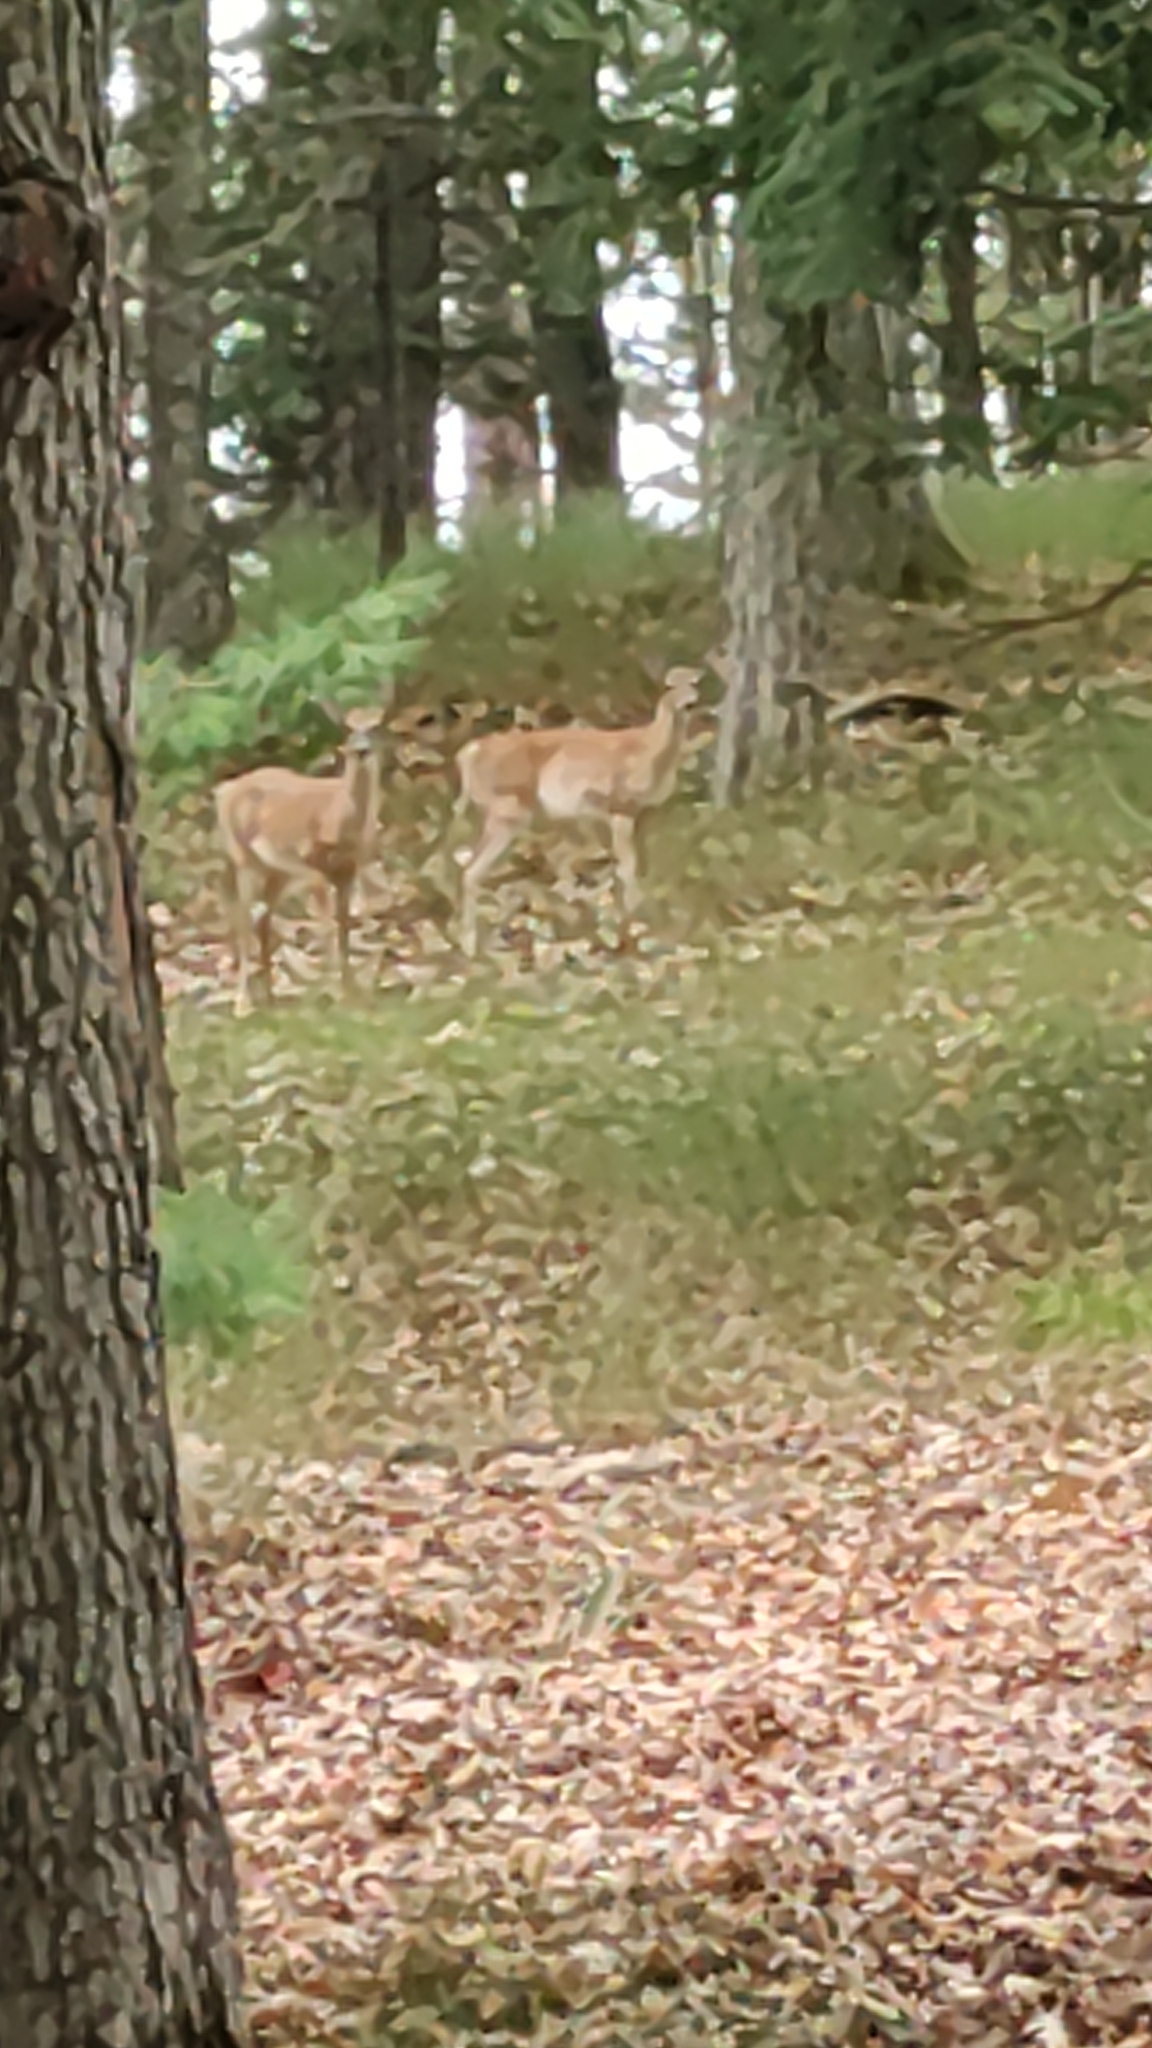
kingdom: Animalia
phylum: Chordata
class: Mammalia
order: Artiodactyla
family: Cervidae
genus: Odocoileus
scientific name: Odocoileus virginianus
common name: White-tailed deer
